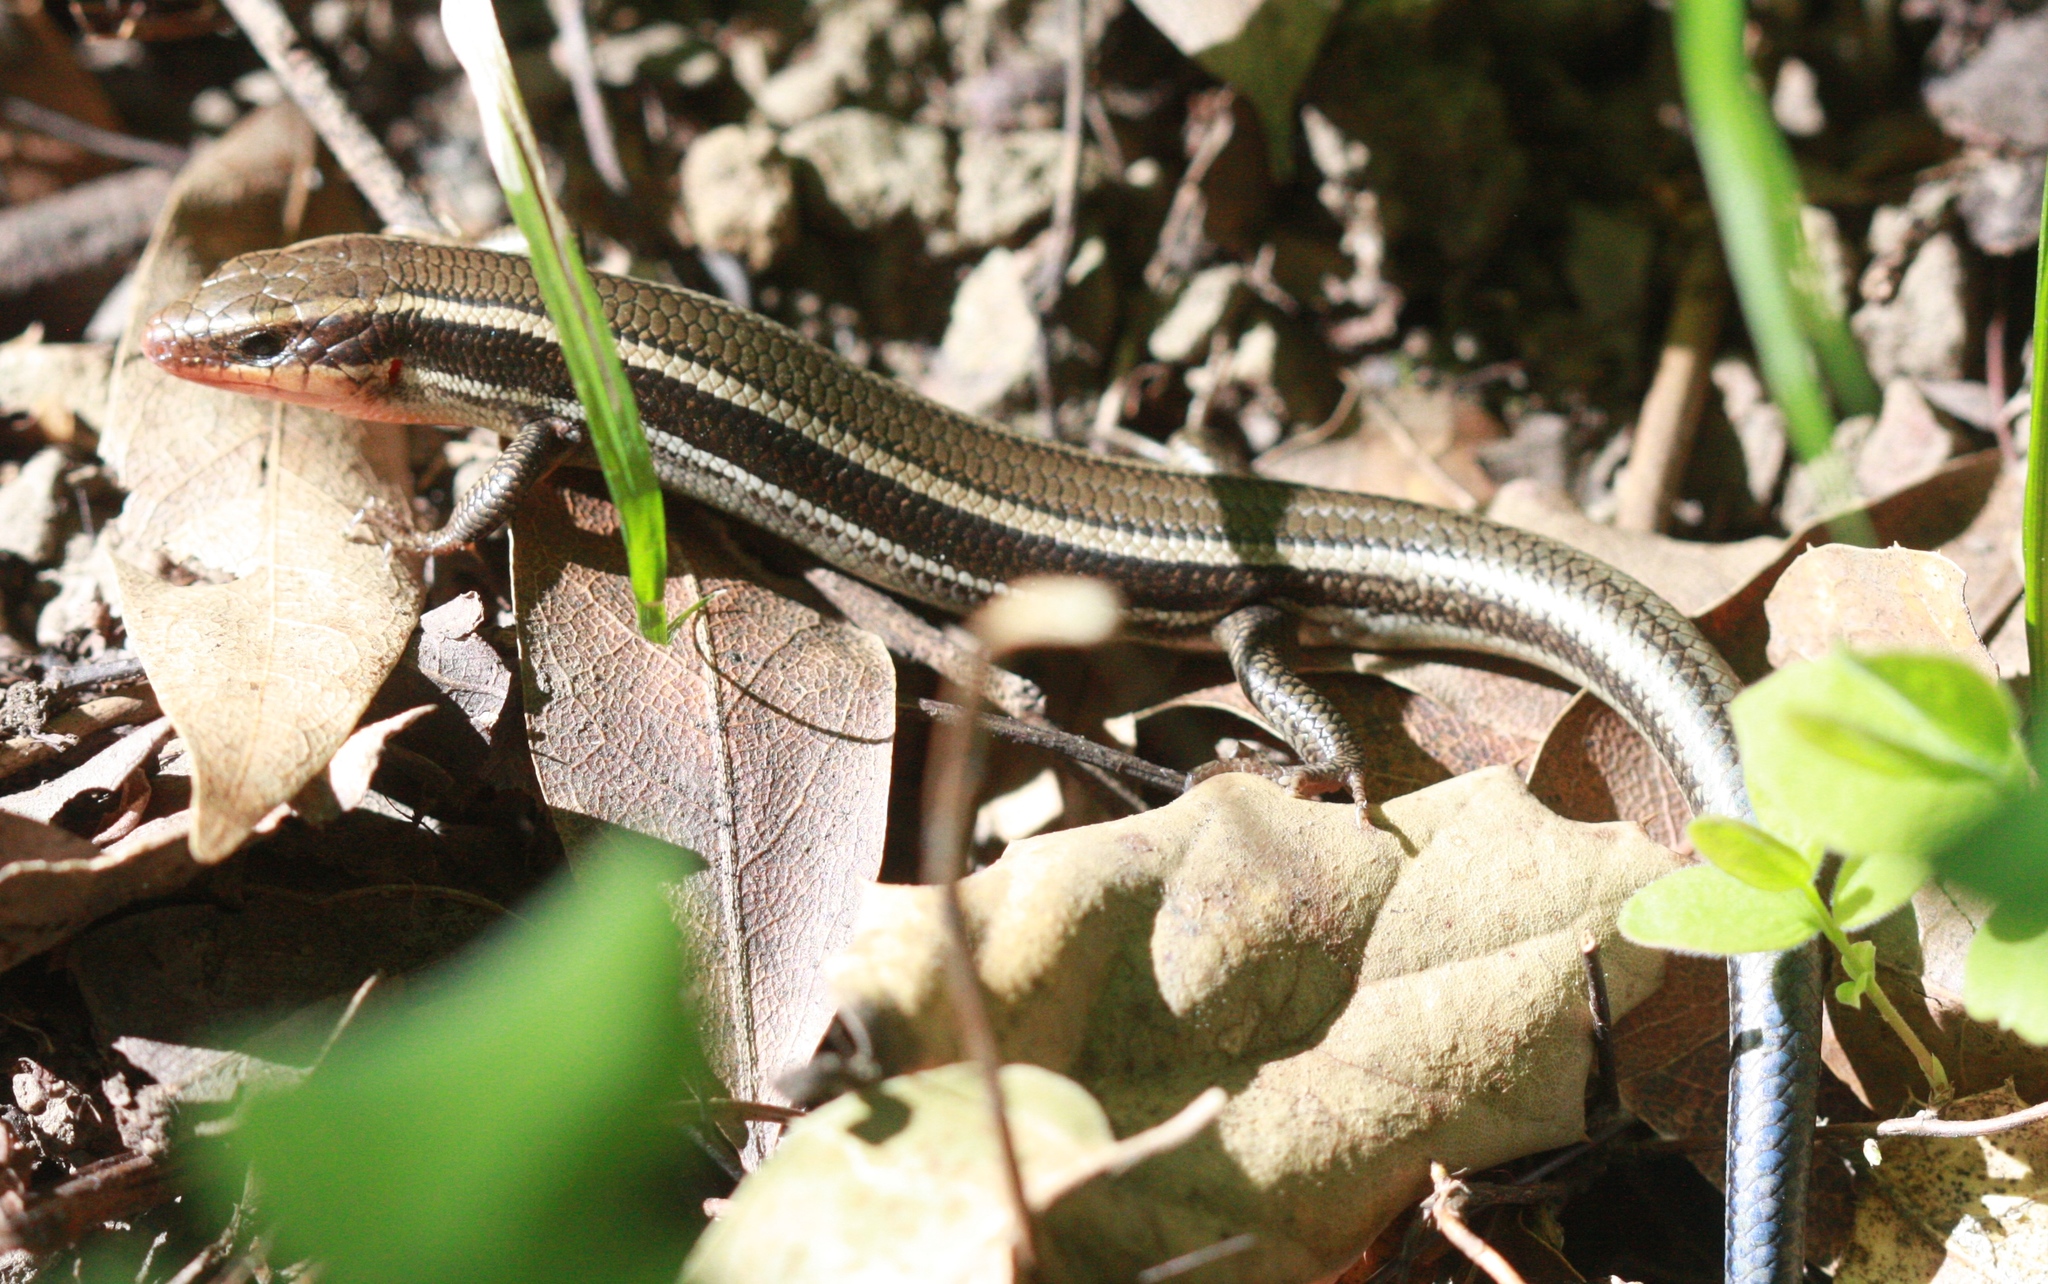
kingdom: Animalia
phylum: Chordata
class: Squamata
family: Scincidae
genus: Plestiodon
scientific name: Plestiodon skiltonianus
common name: Coronado island skink [interparietalis]
